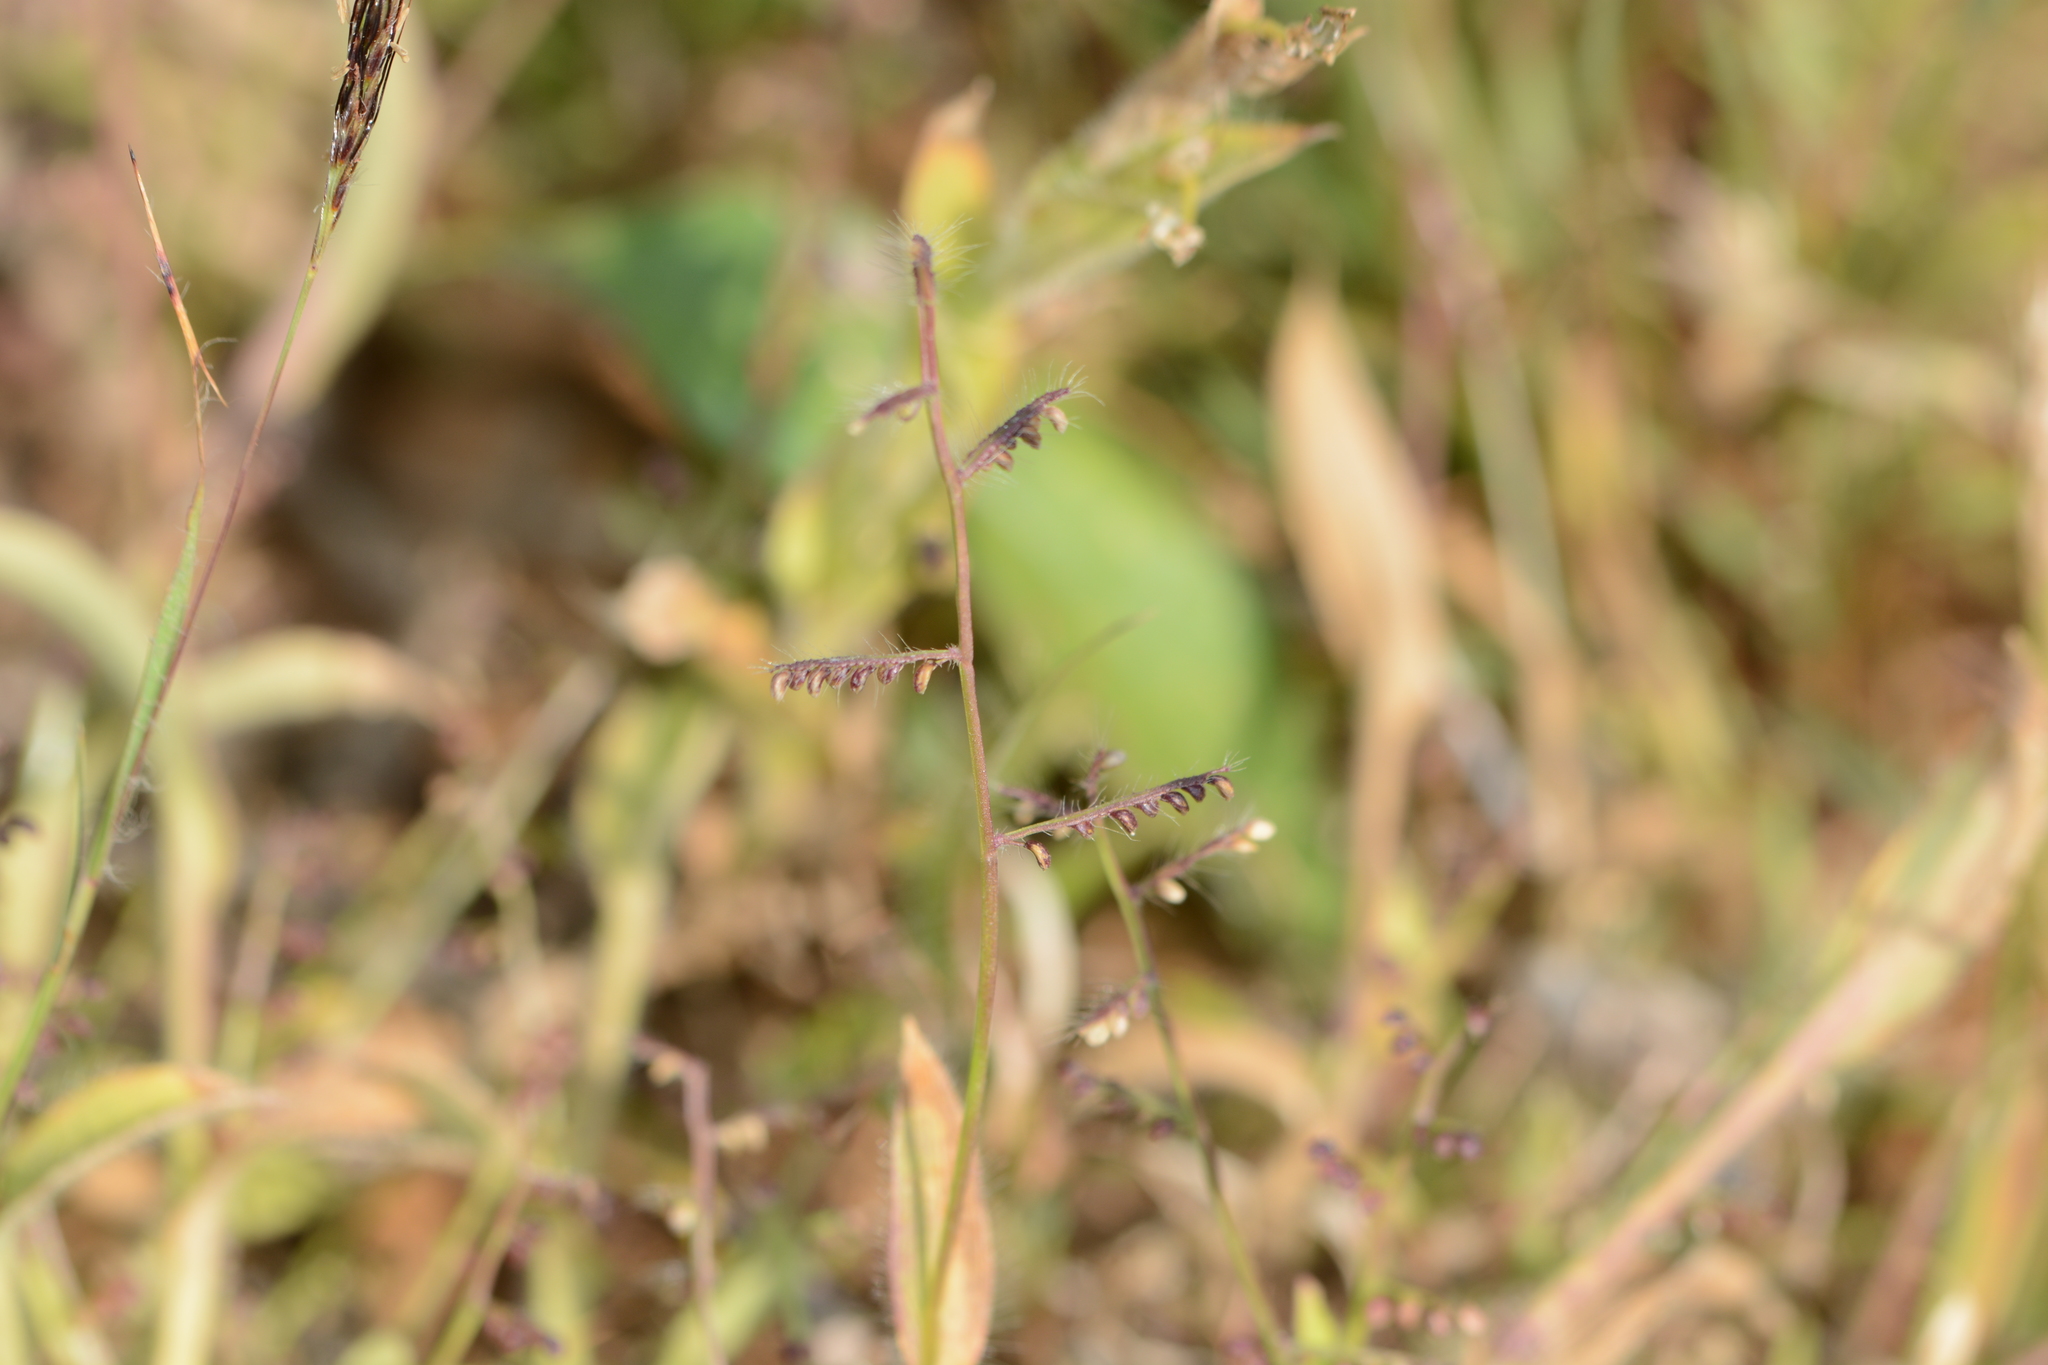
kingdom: Plantae
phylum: Tracheophyta
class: Liliopsida
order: Poales
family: Poaceae
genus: Paspalum
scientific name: Paspalum canarae
